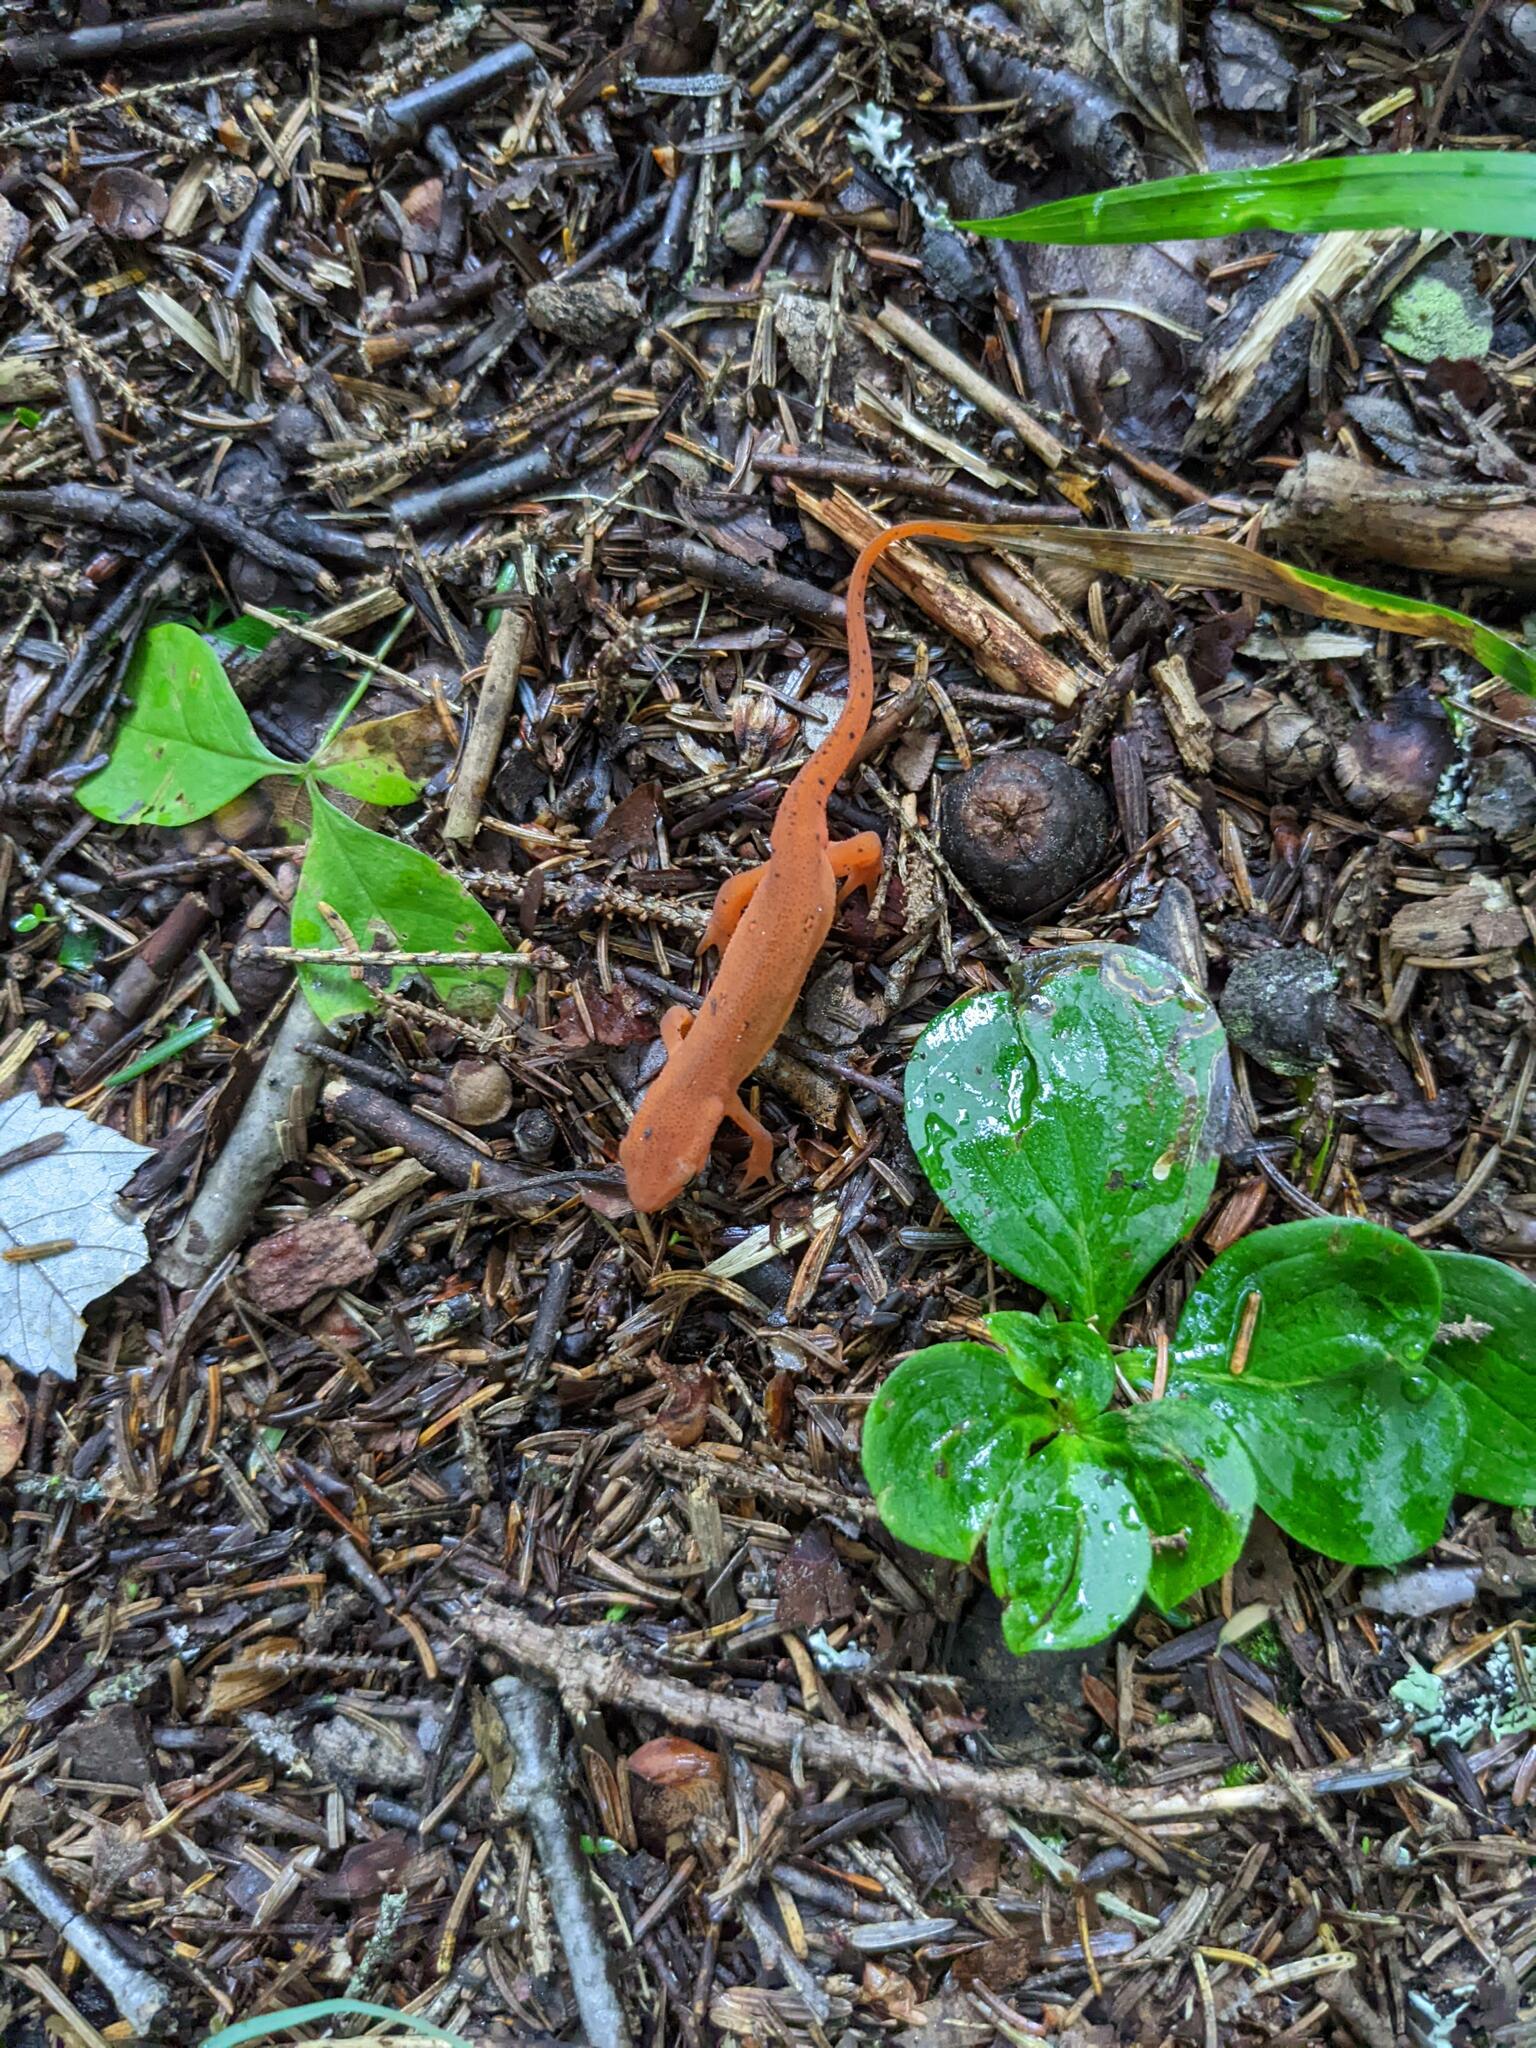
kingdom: Animalia
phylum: Chordata
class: Amphibia
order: Caudata
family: Salamandridae
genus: Notophthalmus
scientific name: Notophthalmus viridescens
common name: Eastern newt
